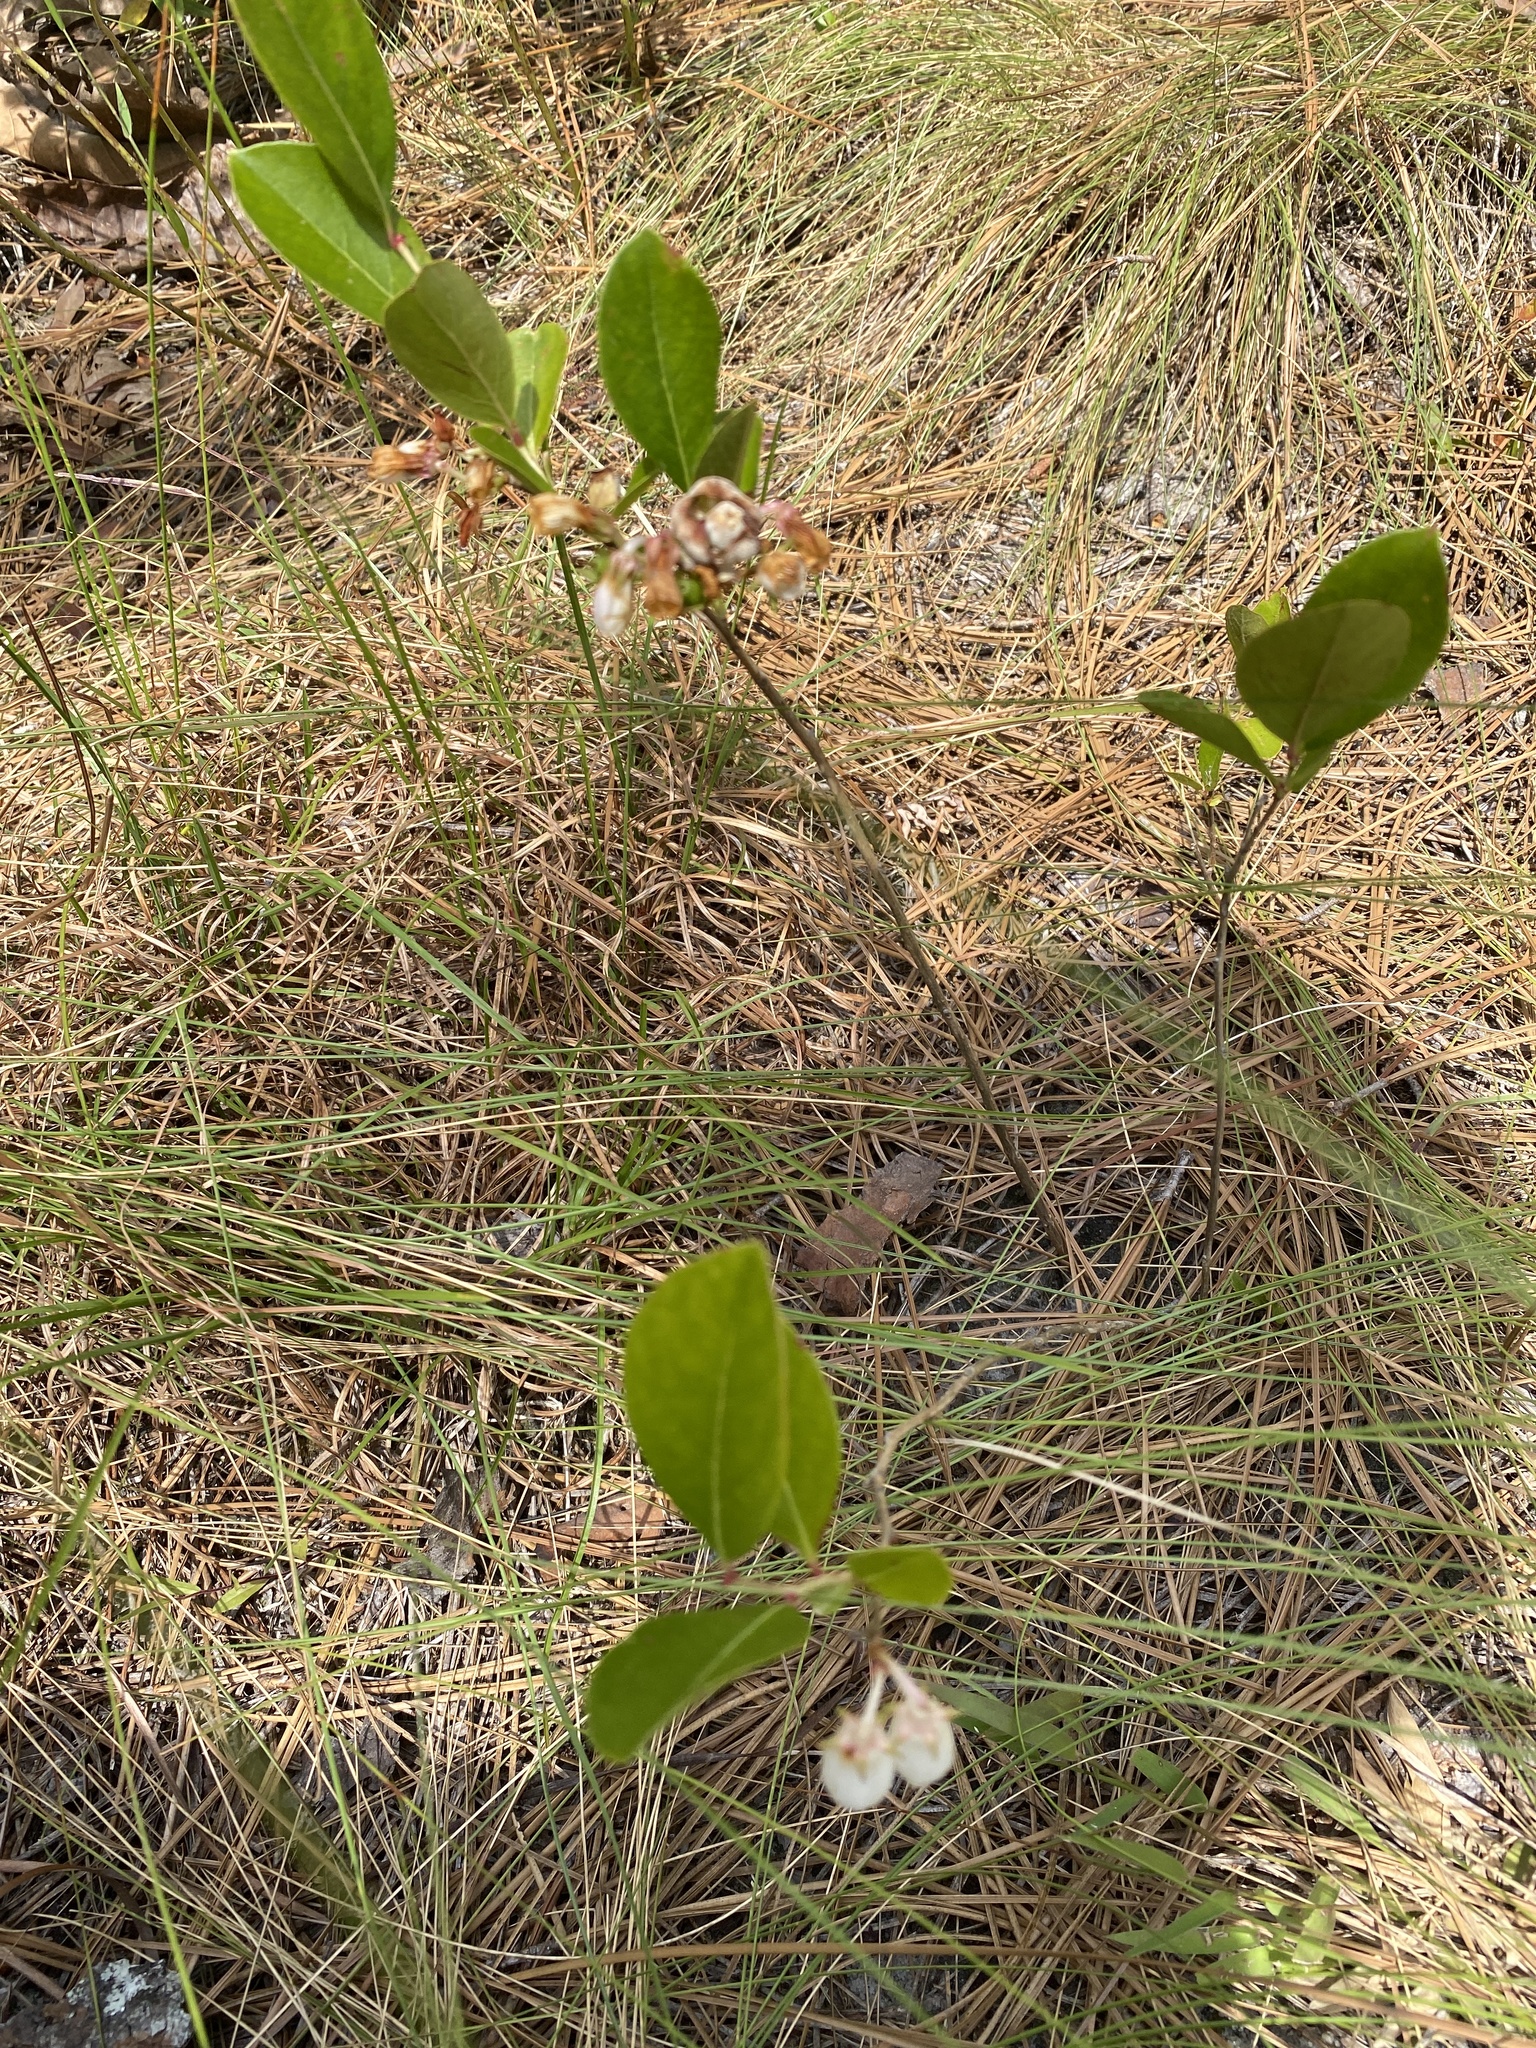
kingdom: Plantae
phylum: Tracheophyta
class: Magnoliopsida
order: Ericales
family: Ericaceae
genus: Lyonia
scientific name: Lyonia mariana
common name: Staggerbush
